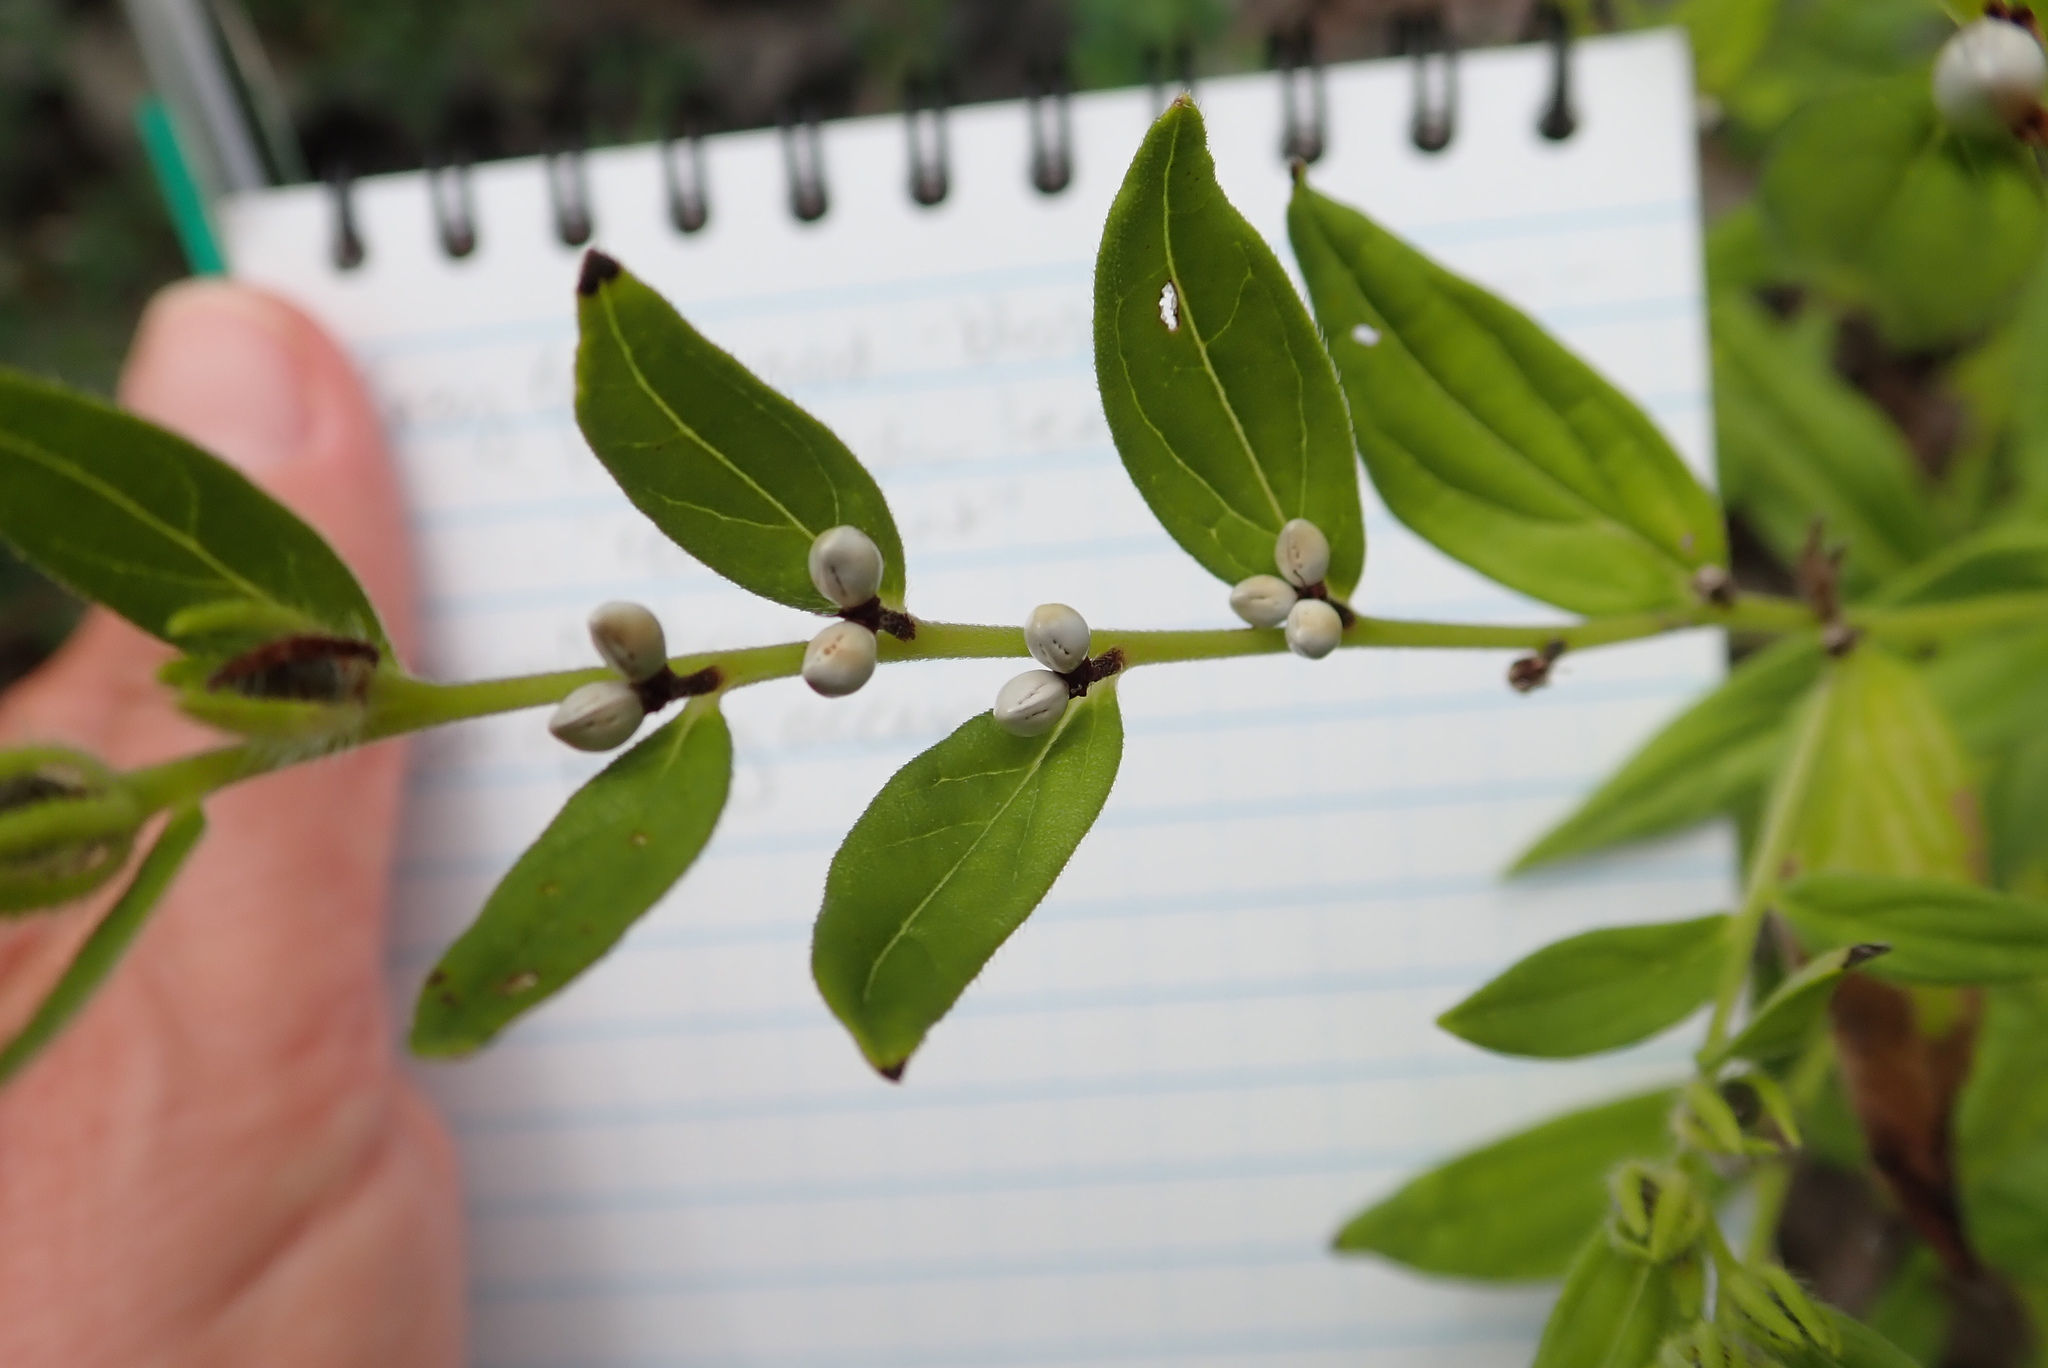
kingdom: Plantae
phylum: Tracheophyta
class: Magnoliopsida
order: Boraginales
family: Boraginaceae
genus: Lithospermum
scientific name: Lithospermum officinale
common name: Common gromwell
